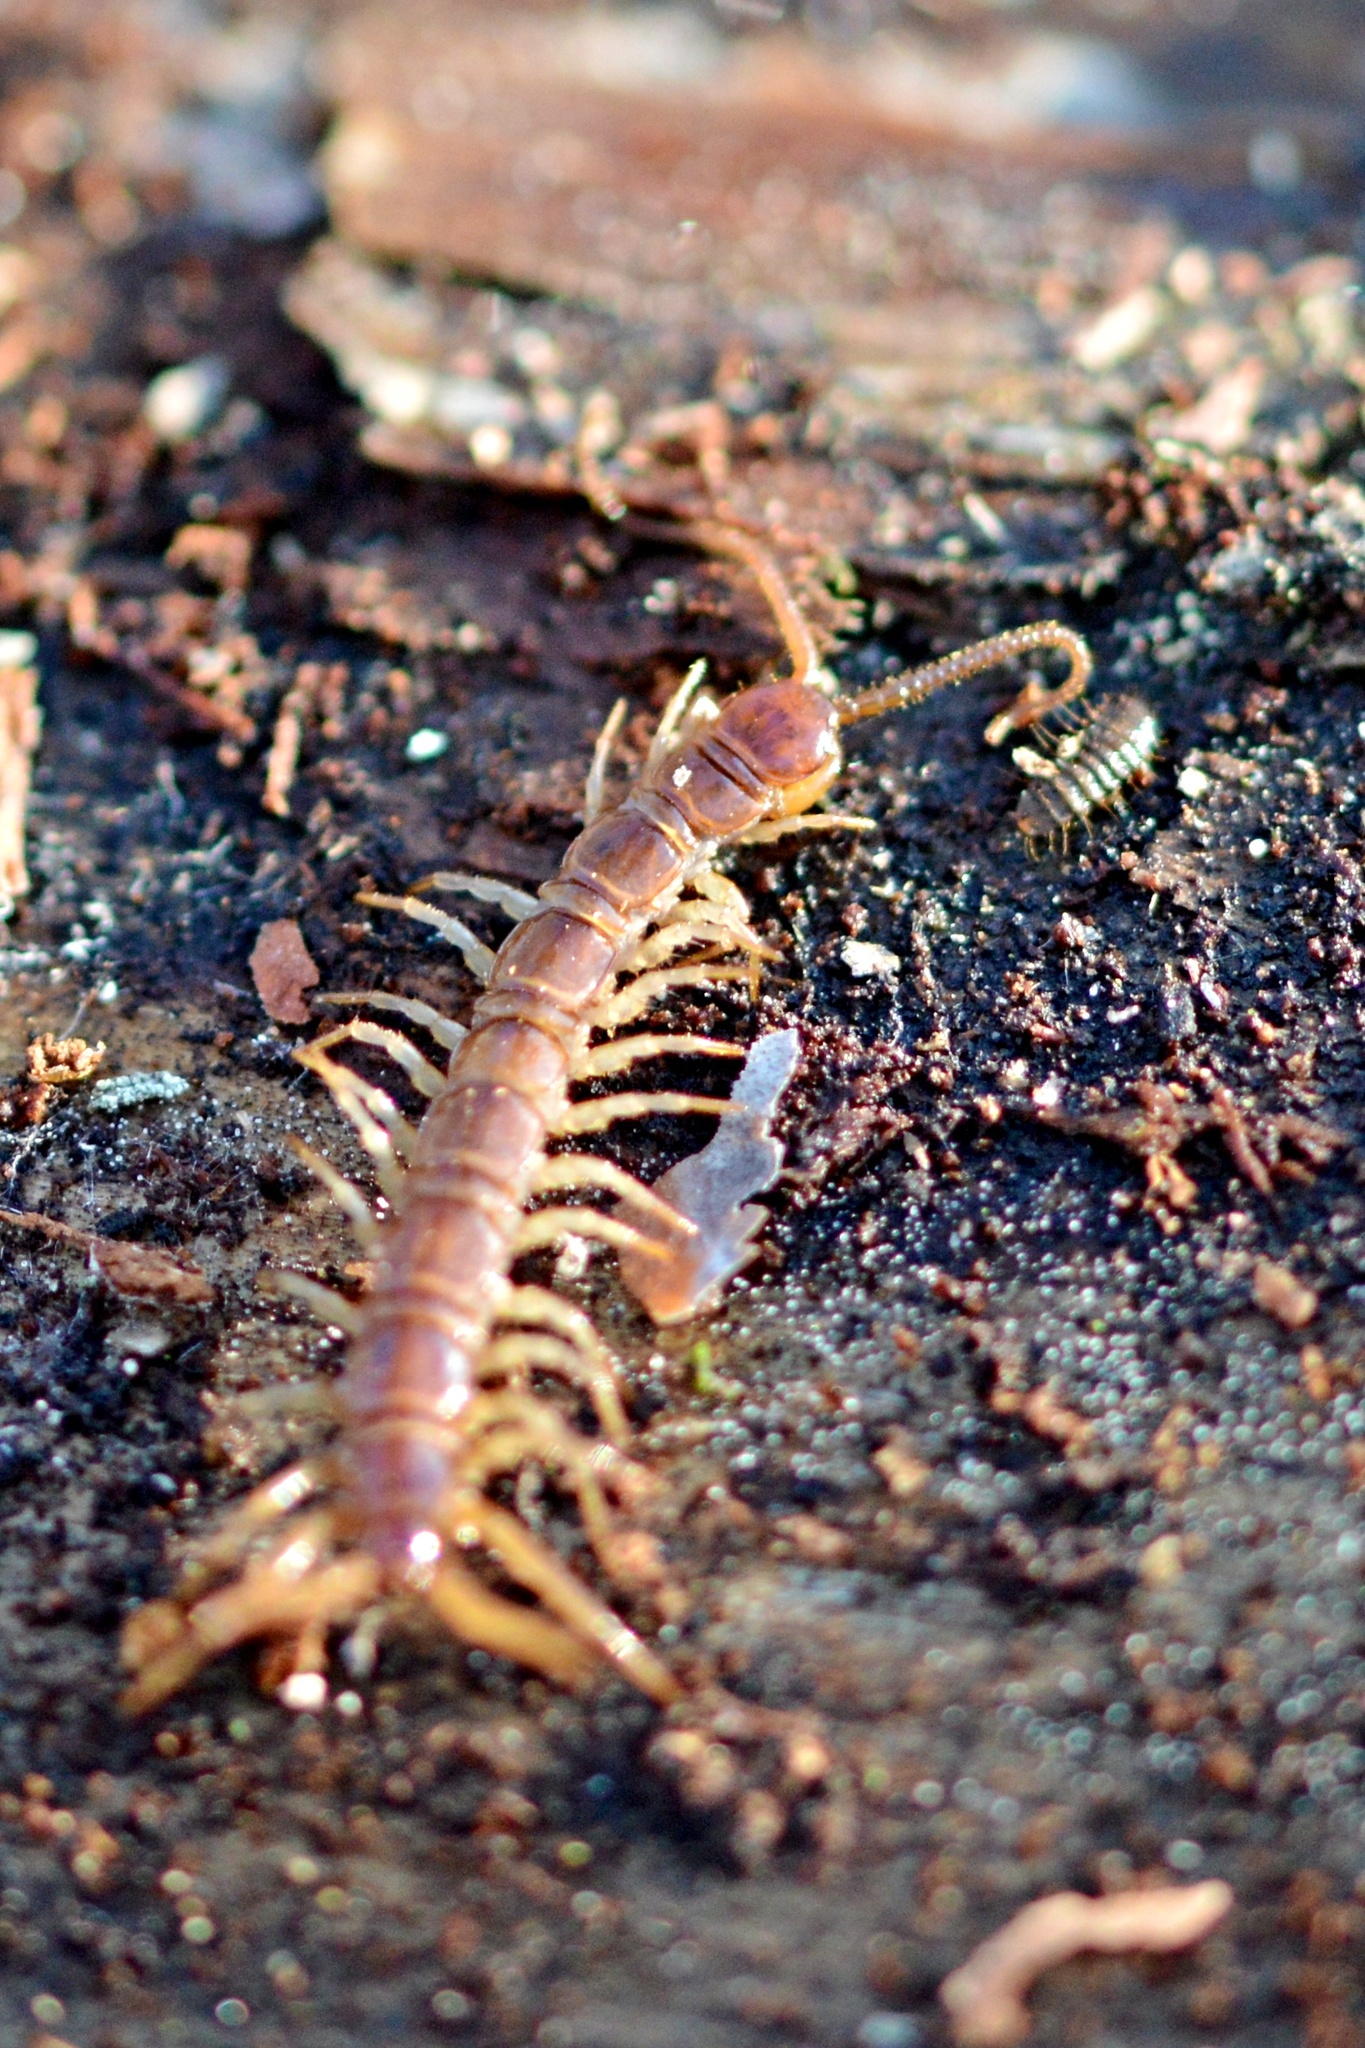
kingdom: Animalia
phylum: Arthropoda
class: Chilopoda
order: Lithobiomorpha
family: Lithobiidae
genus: Lithobius
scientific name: Lithobius forficatus
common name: Centipede
